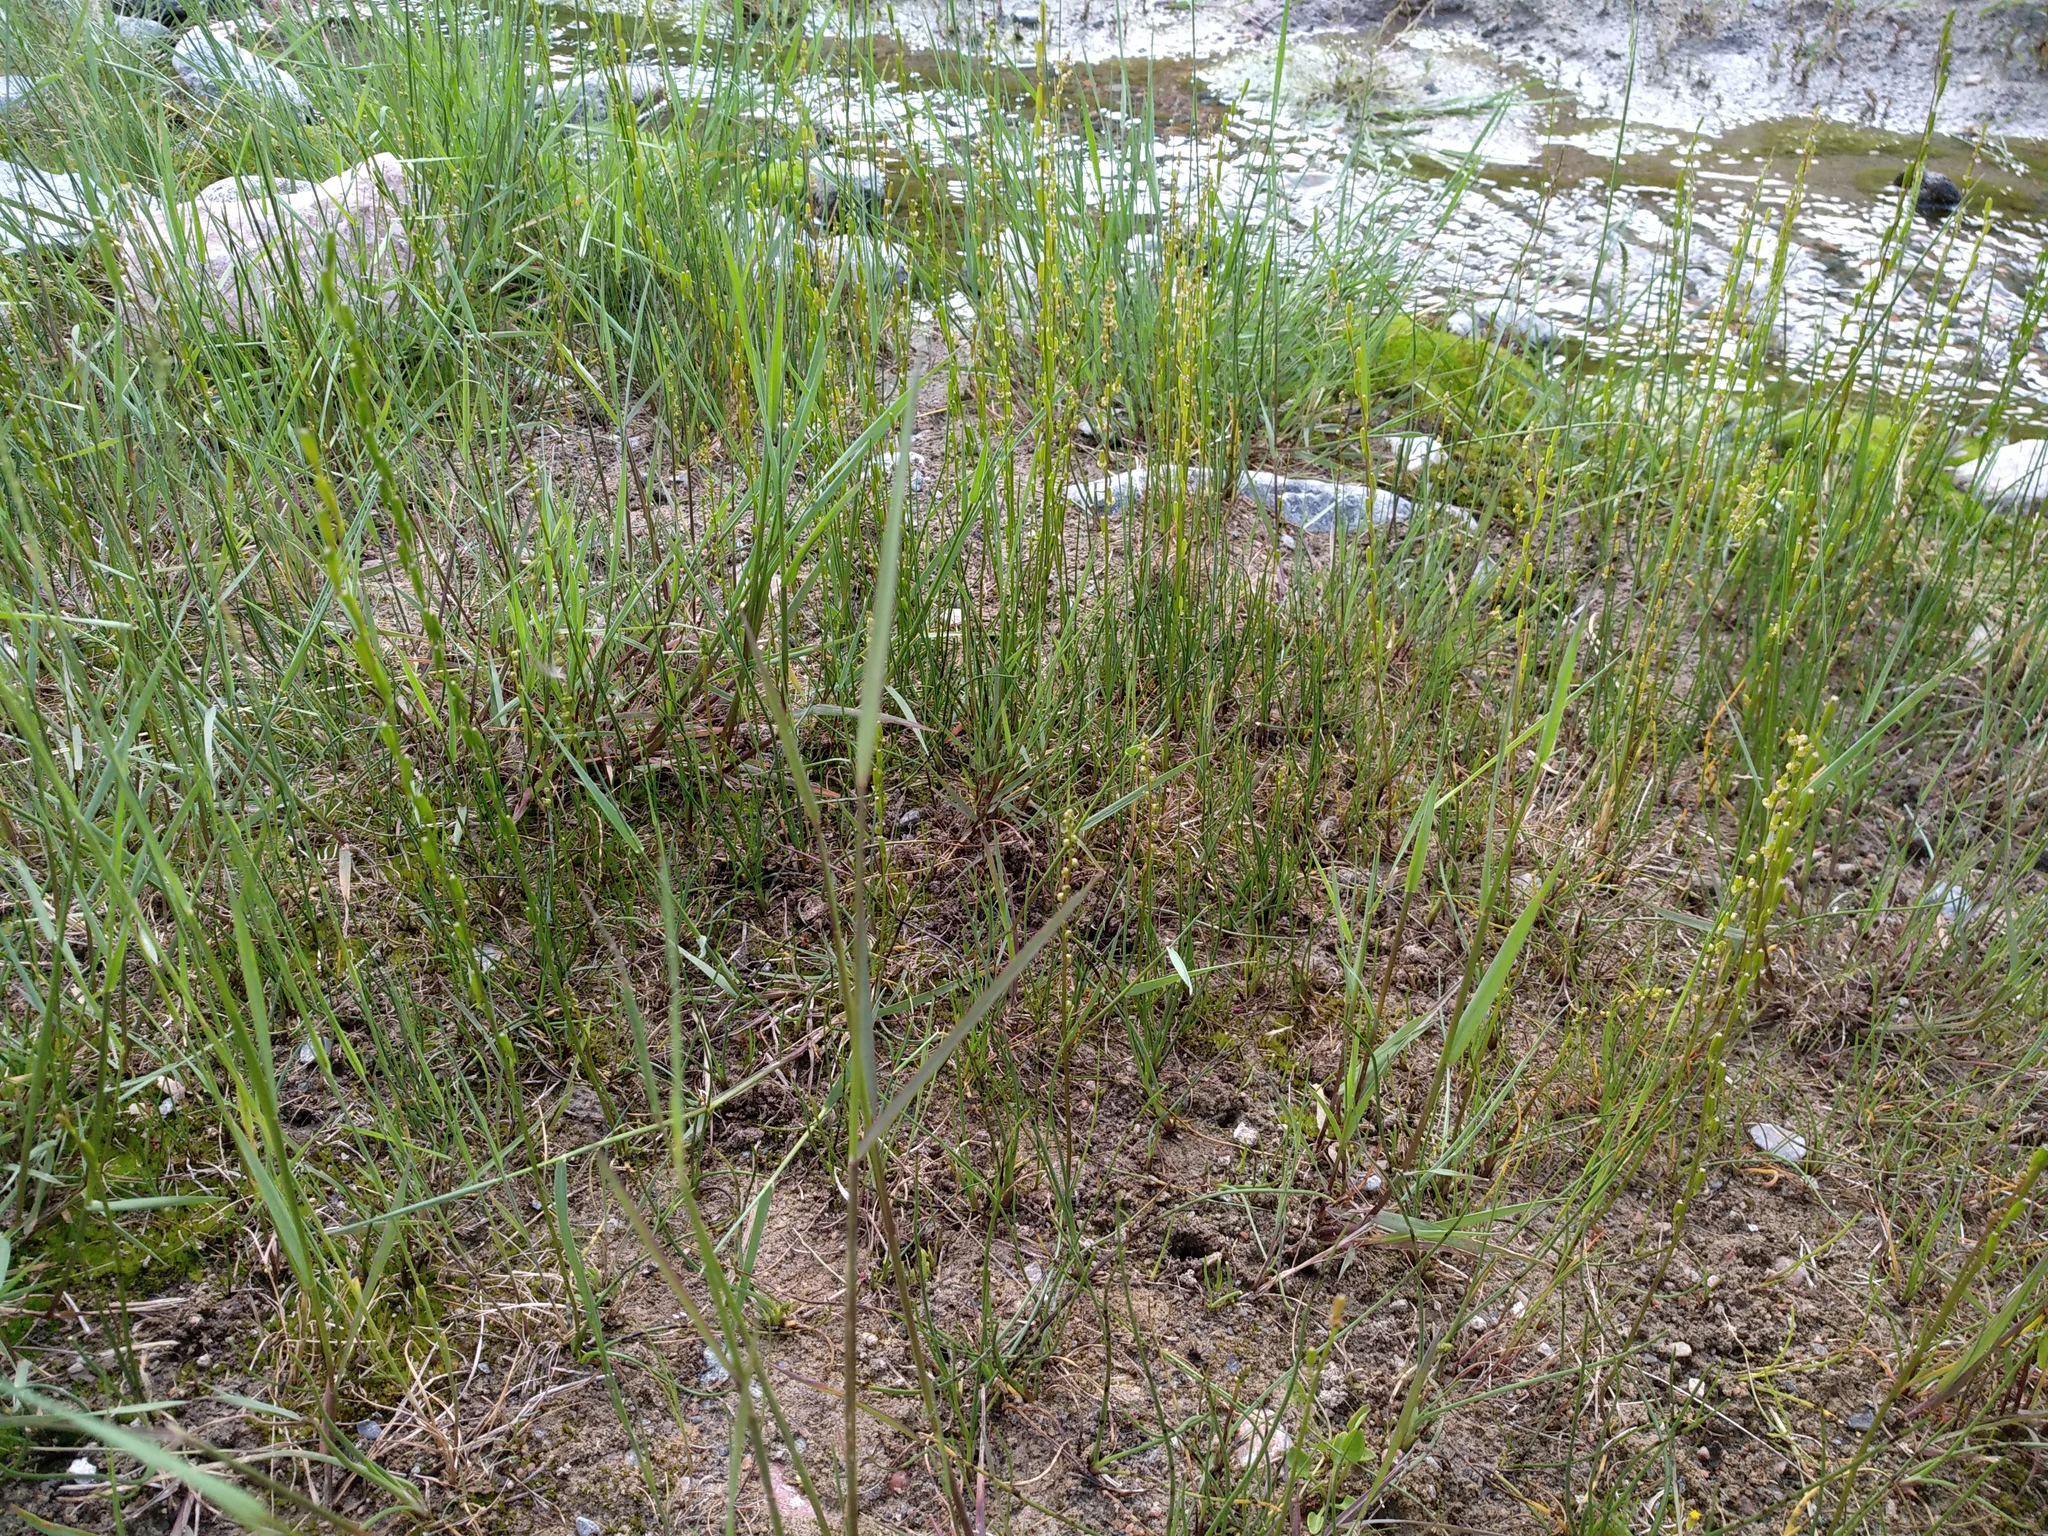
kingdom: Plantae
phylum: Tracheophyta
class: Liliopsida
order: Alismatales
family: Juncaginaceae
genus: Triglochin
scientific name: Triglochin palustris
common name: Marsh arrowgrass
